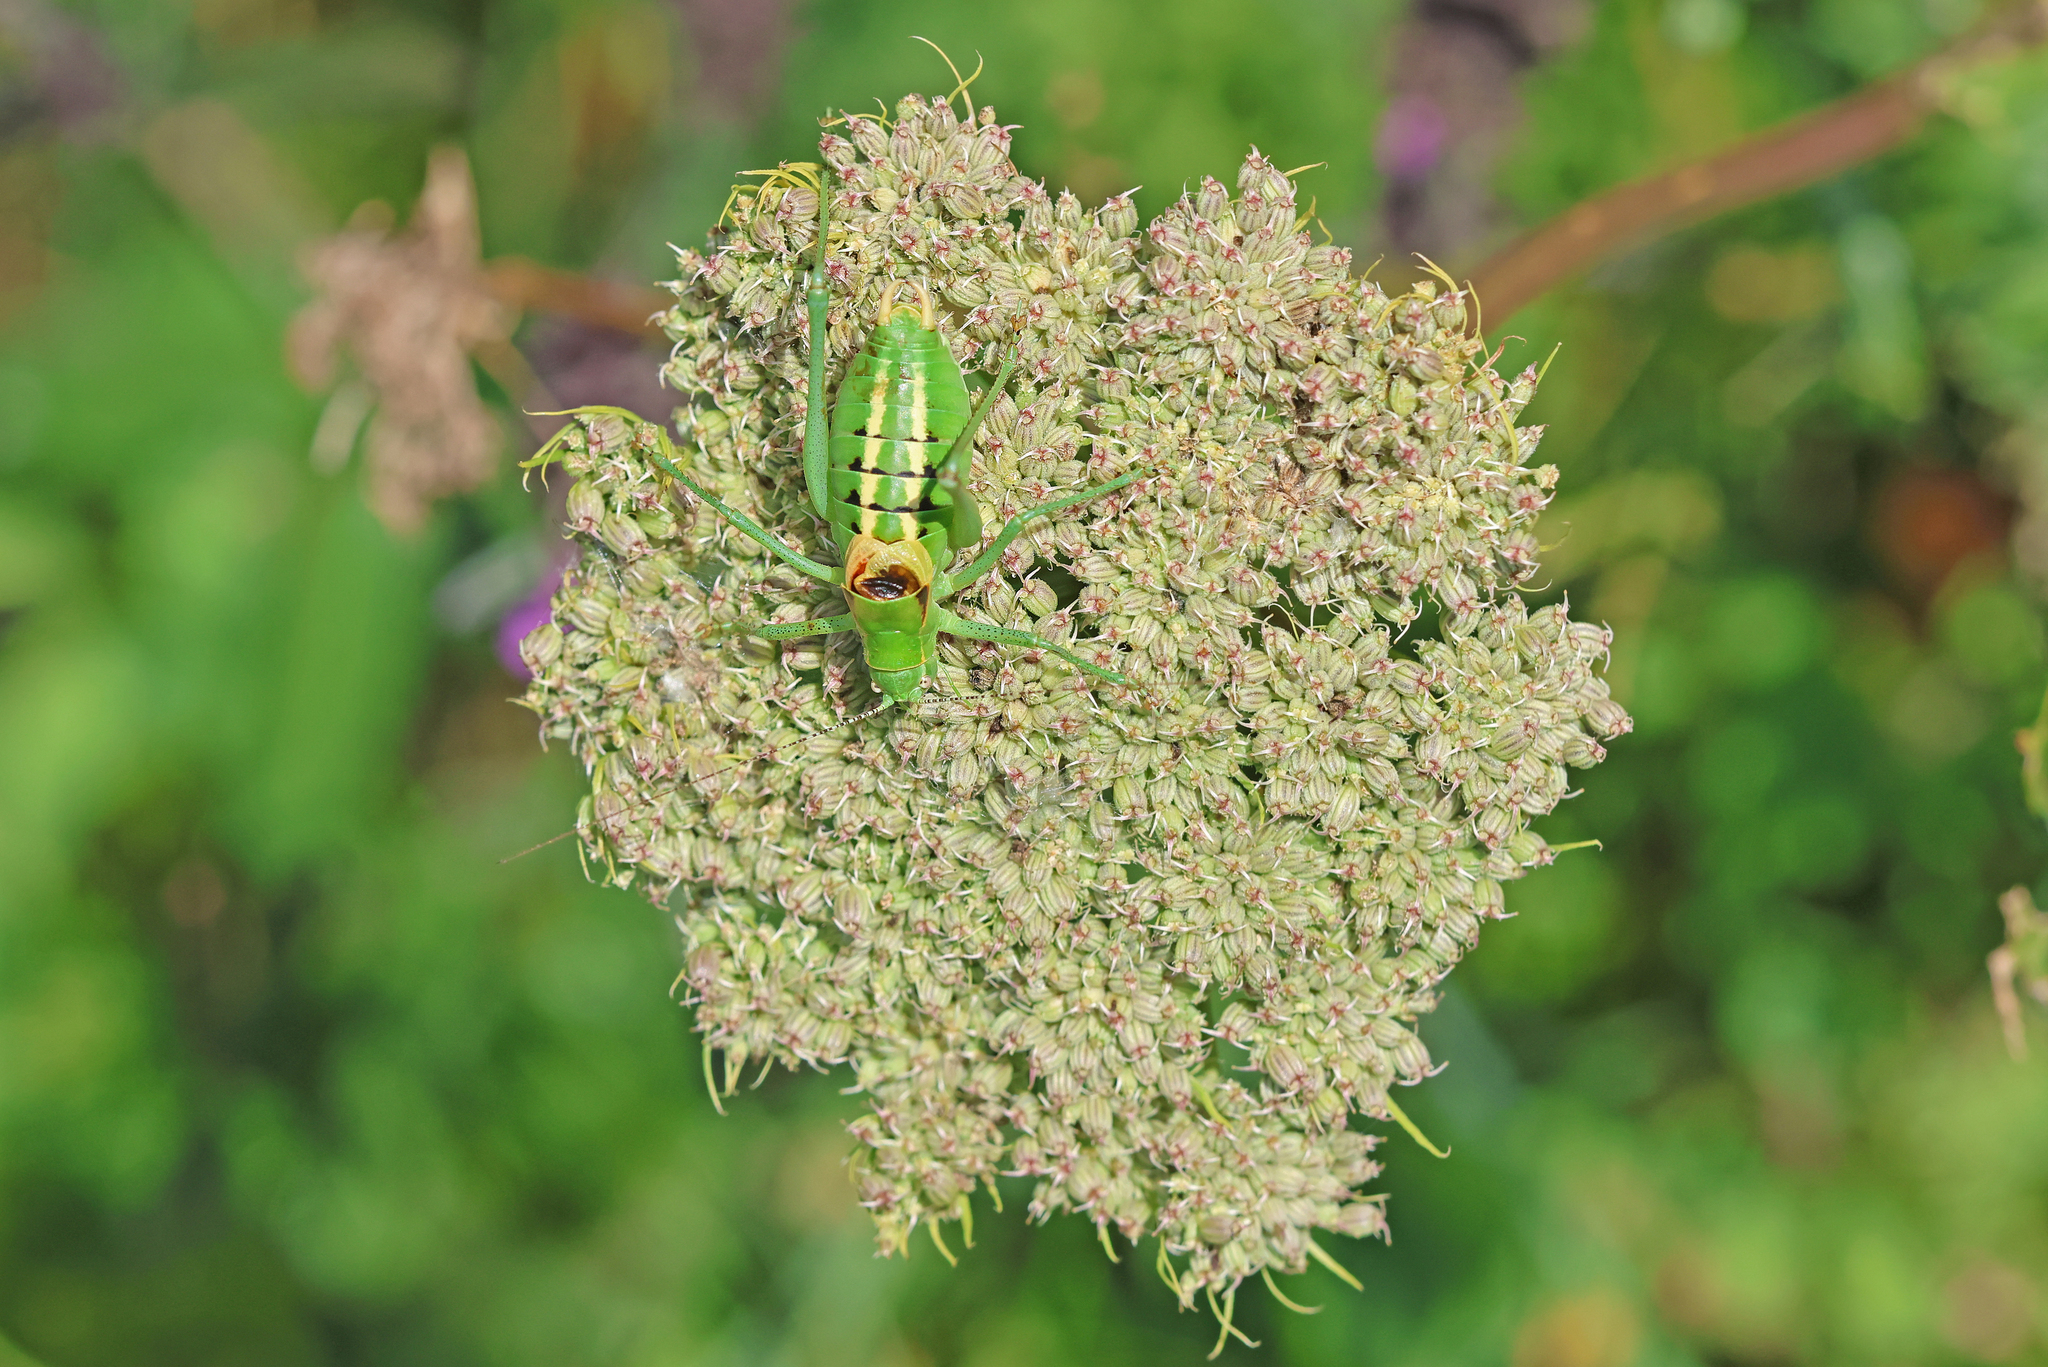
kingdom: Animalia
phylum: Arthropoda
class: Insecta
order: Orthoptera
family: Tettigoniidae
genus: Poecilimon
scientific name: Poecilimon ornatus
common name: Ornate bright bush-cricket
